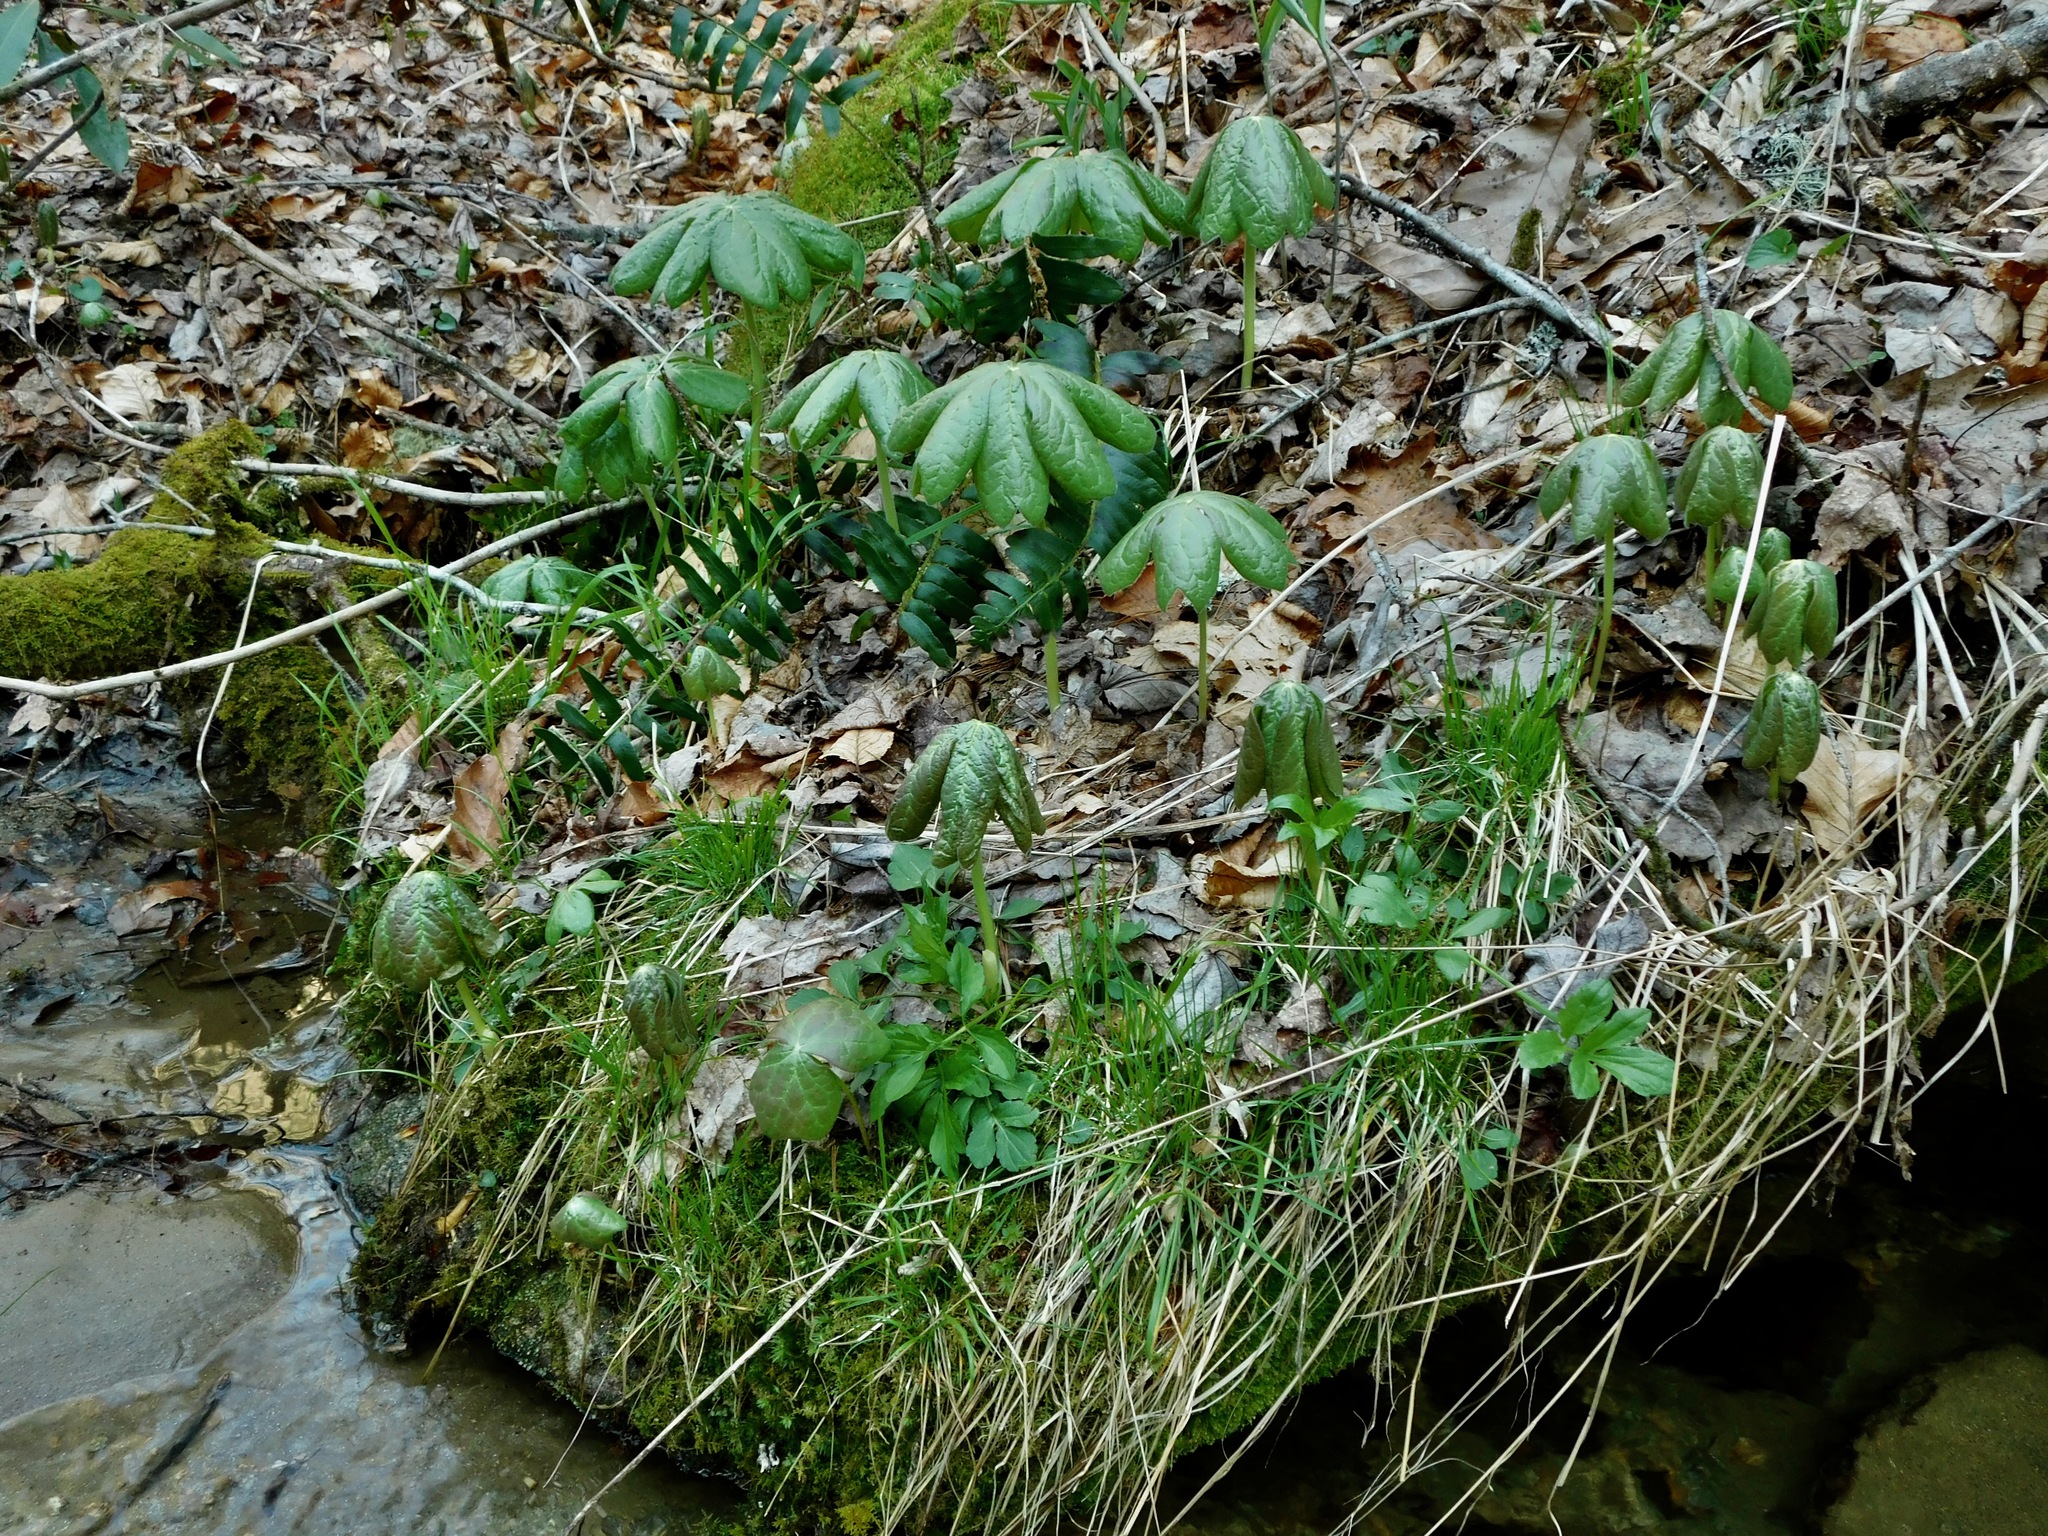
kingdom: Plantae
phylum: Tracheophyta
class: Magnoliopsida
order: Ranunculales
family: Berberidaceae
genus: Podophyllum
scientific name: Podophyllum peltatum
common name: Wild mandrake
